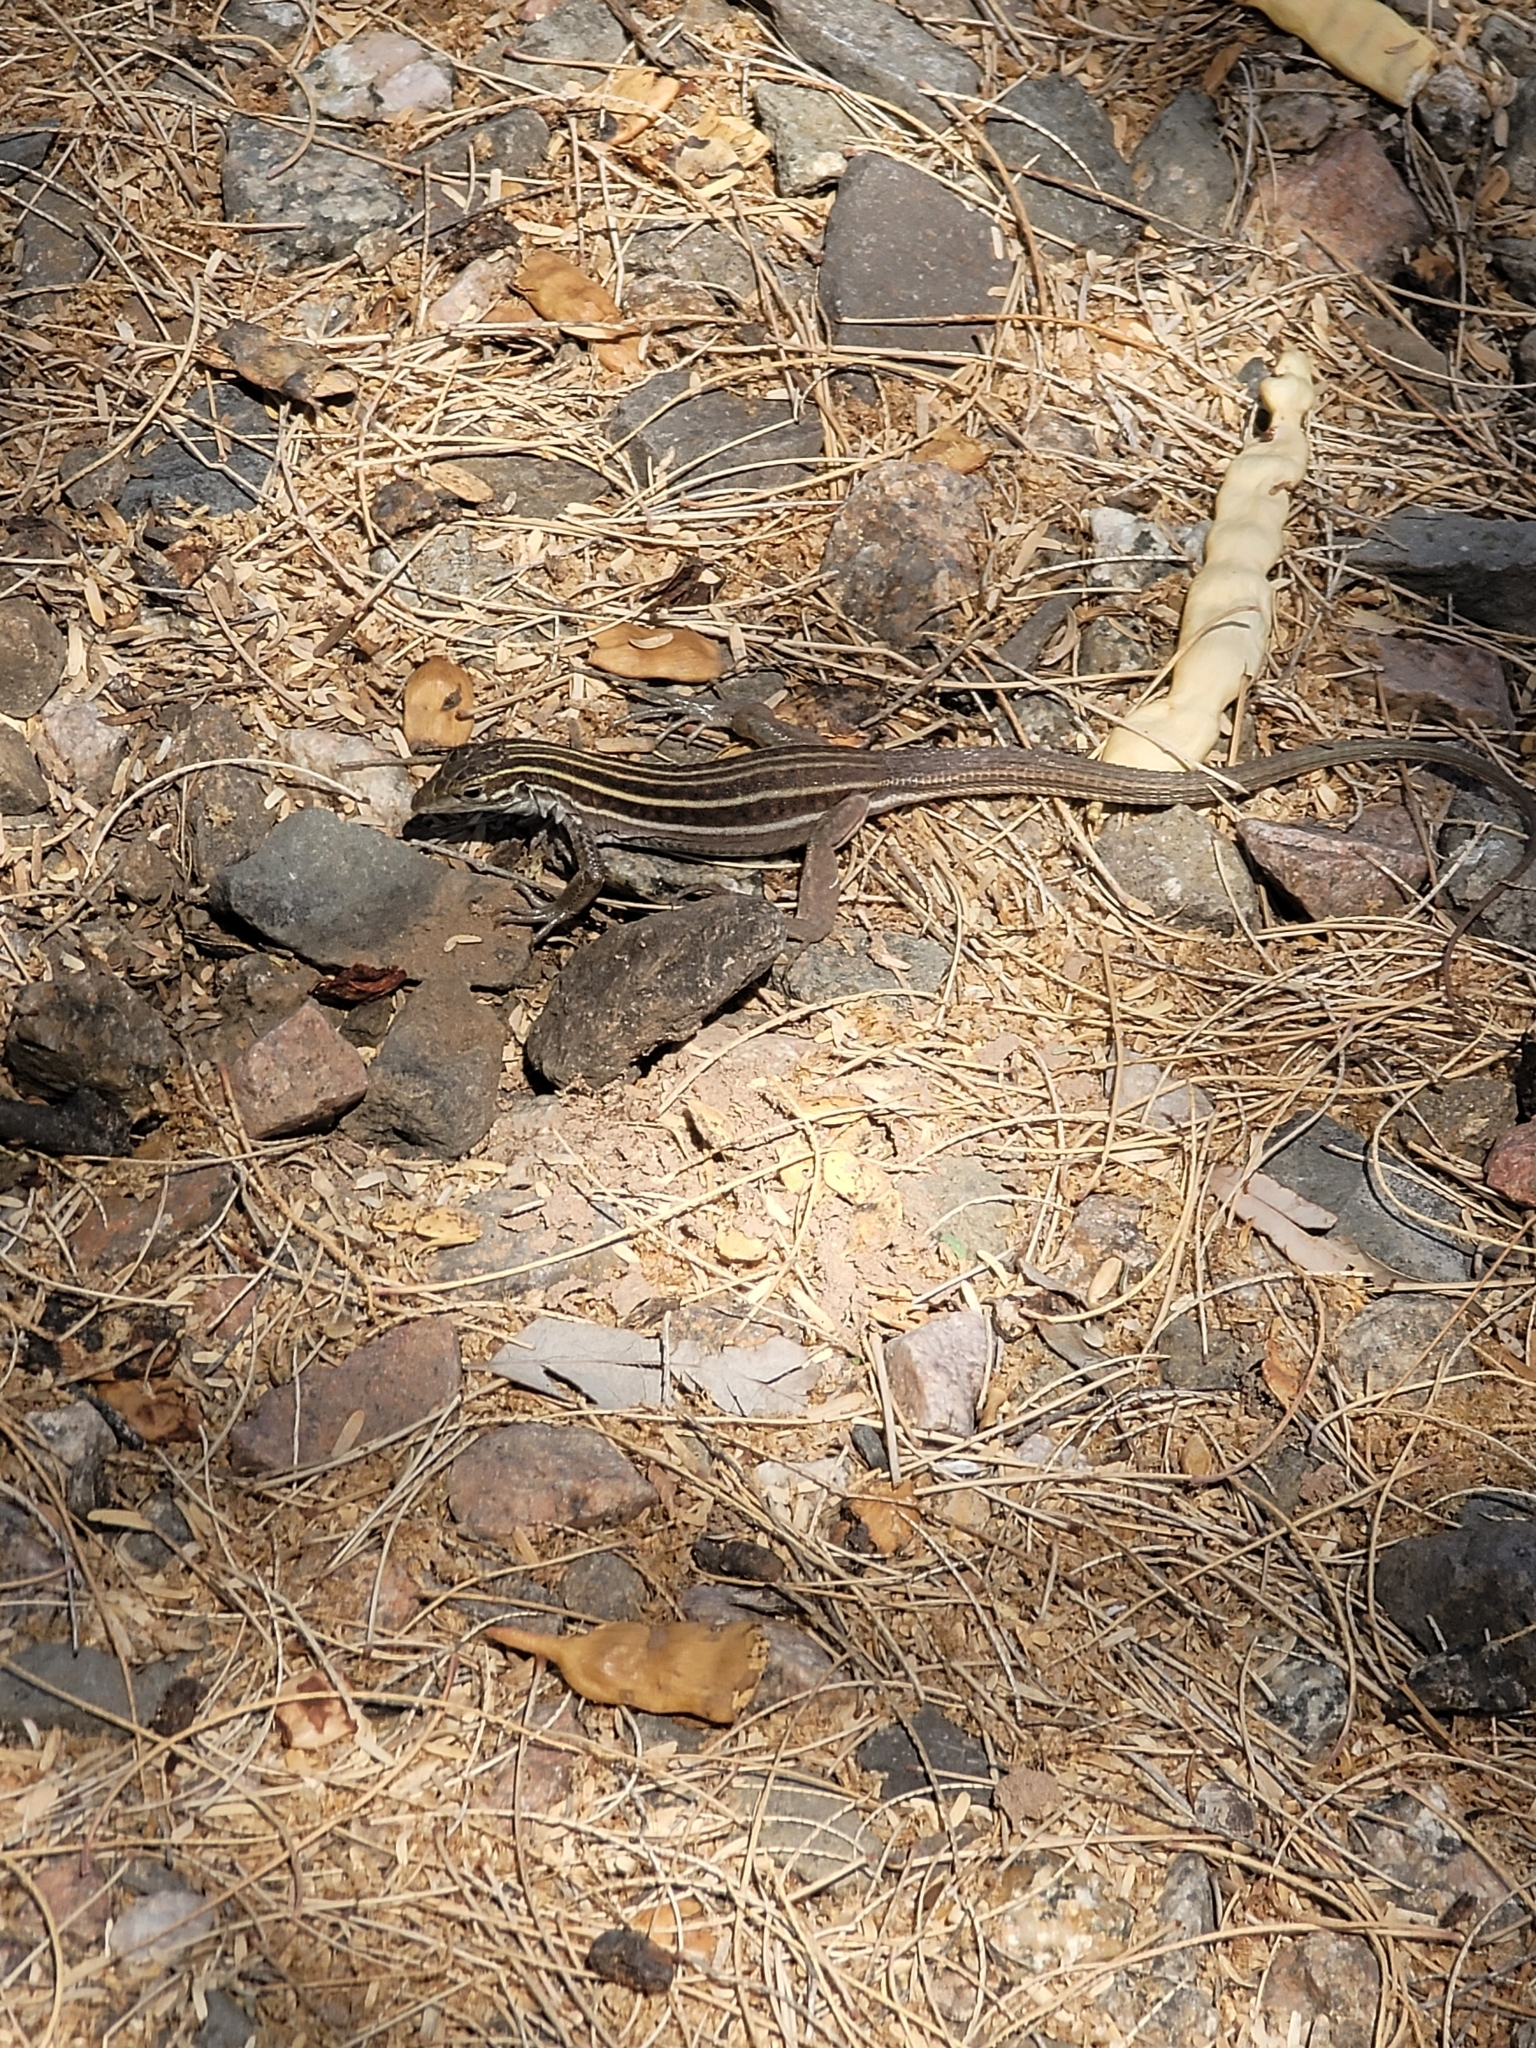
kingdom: Animalia
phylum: Chordata
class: Squamata
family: Teiidae
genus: Aspidoscelis
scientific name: Aspidoscelis sonorae
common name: Sonoran spotted whiptail
